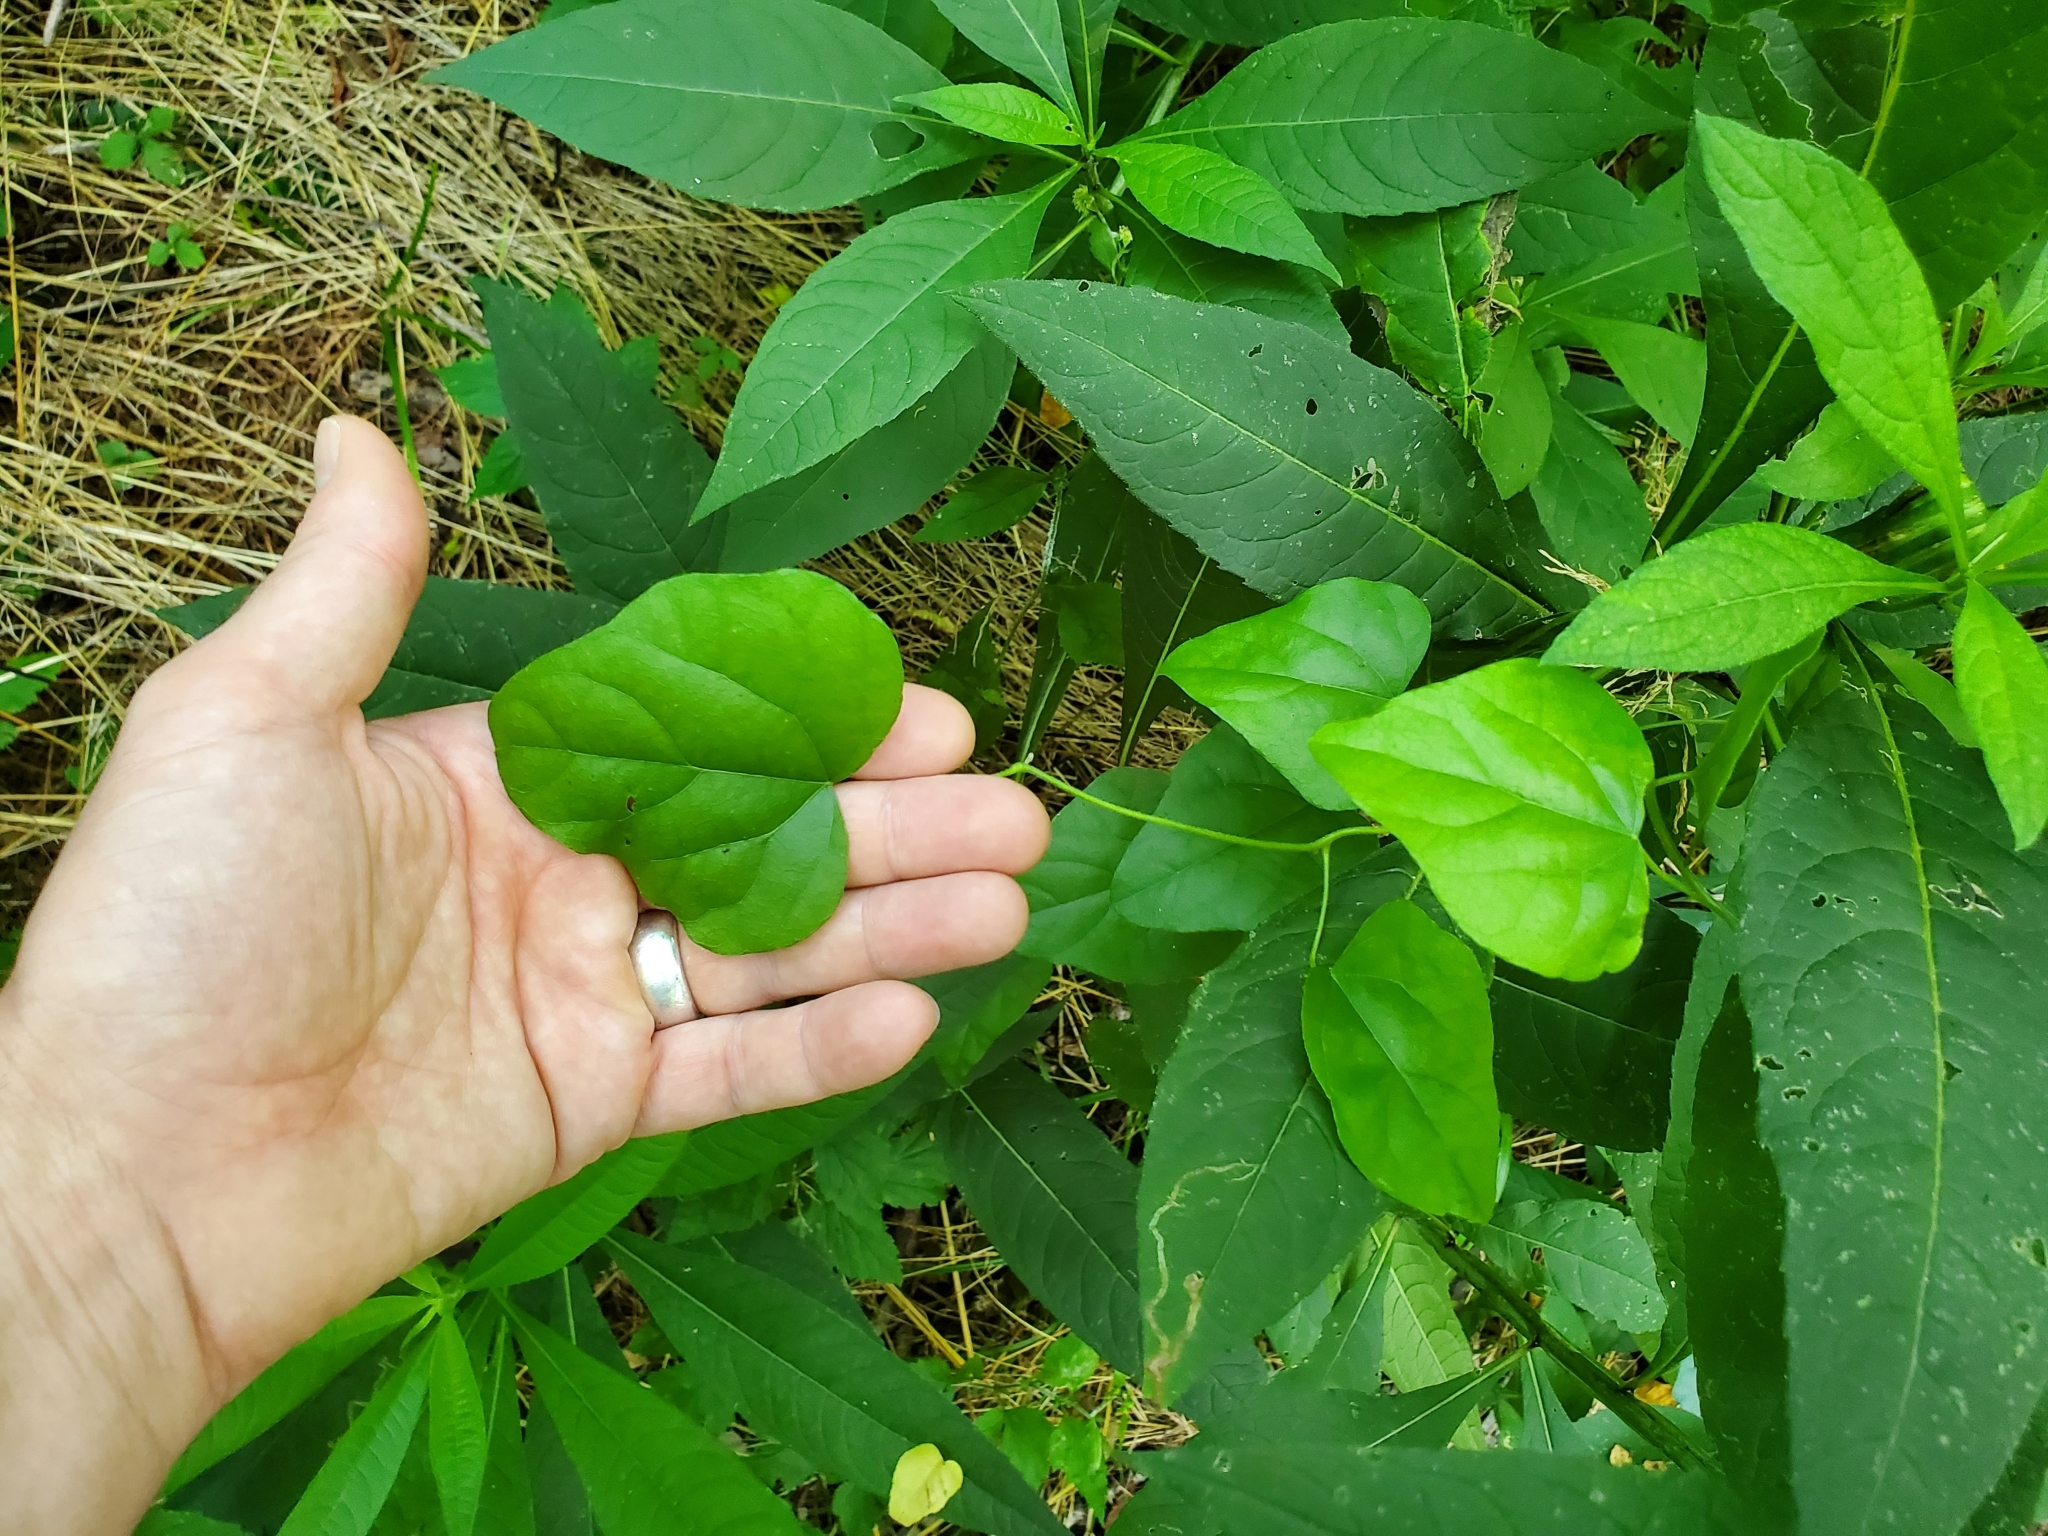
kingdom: Plantae
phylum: Tracheophyta
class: Magnoliopsida
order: Ranunculales
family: Menispermaceae
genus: Cocculus
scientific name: Cocculus carolinus
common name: Carolina moonseed
